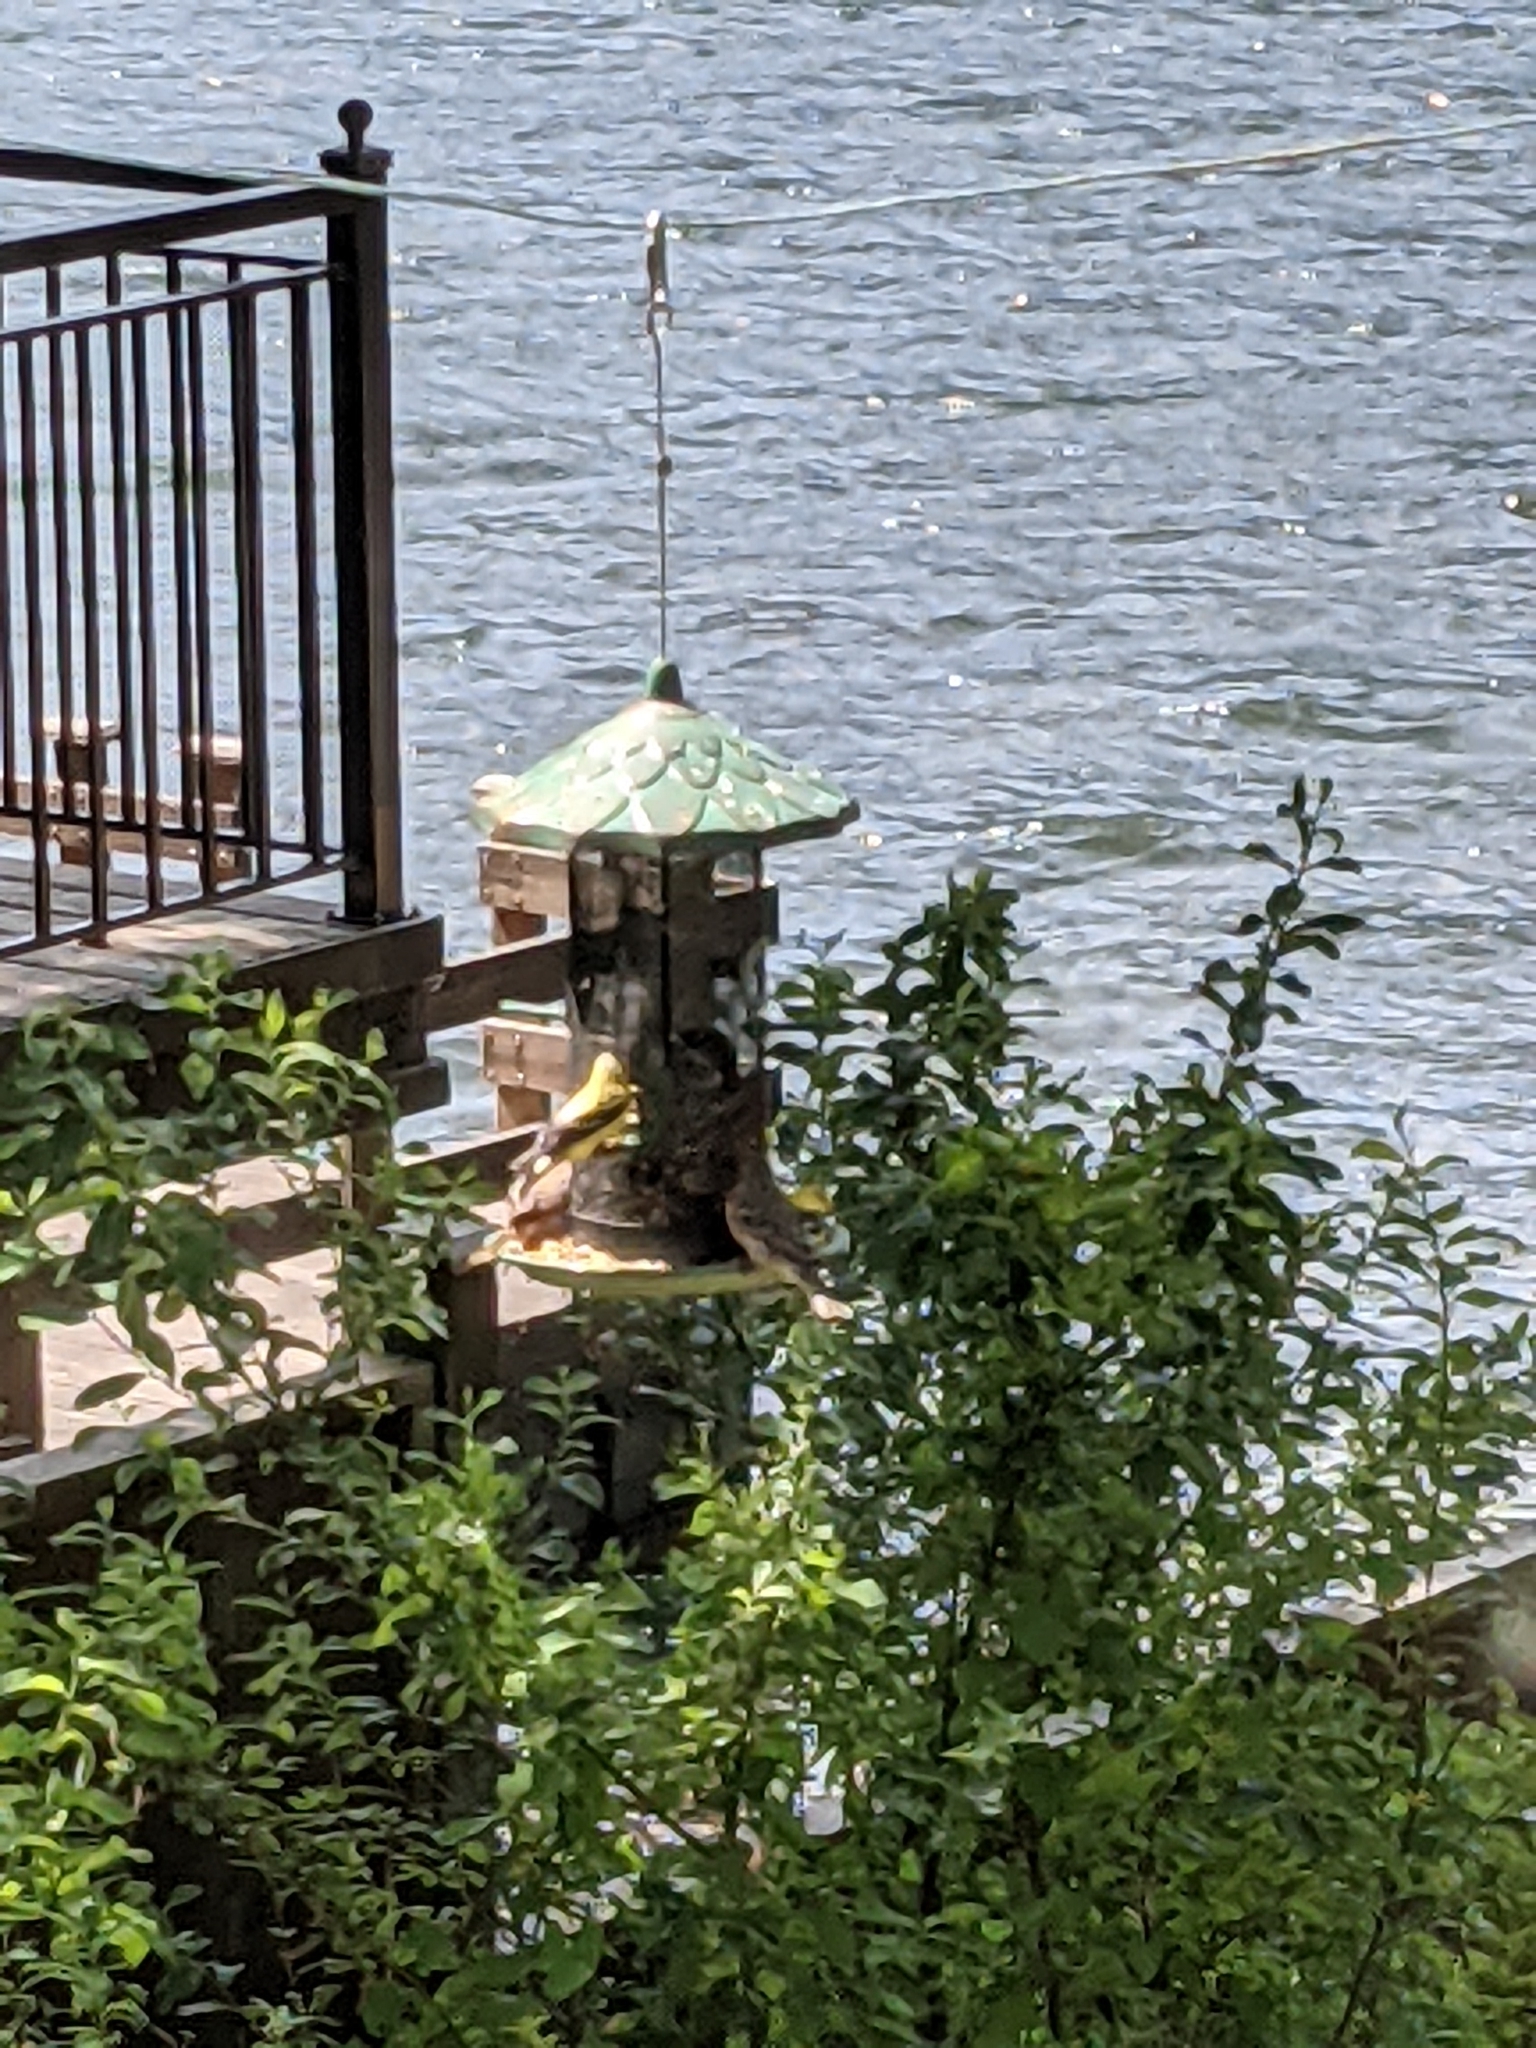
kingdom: Animalia
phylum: Chordata
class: Aves
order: Passeriformes
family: Fringillidae
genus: Spinus
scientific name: Spinus tristis
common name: American goldfinch
